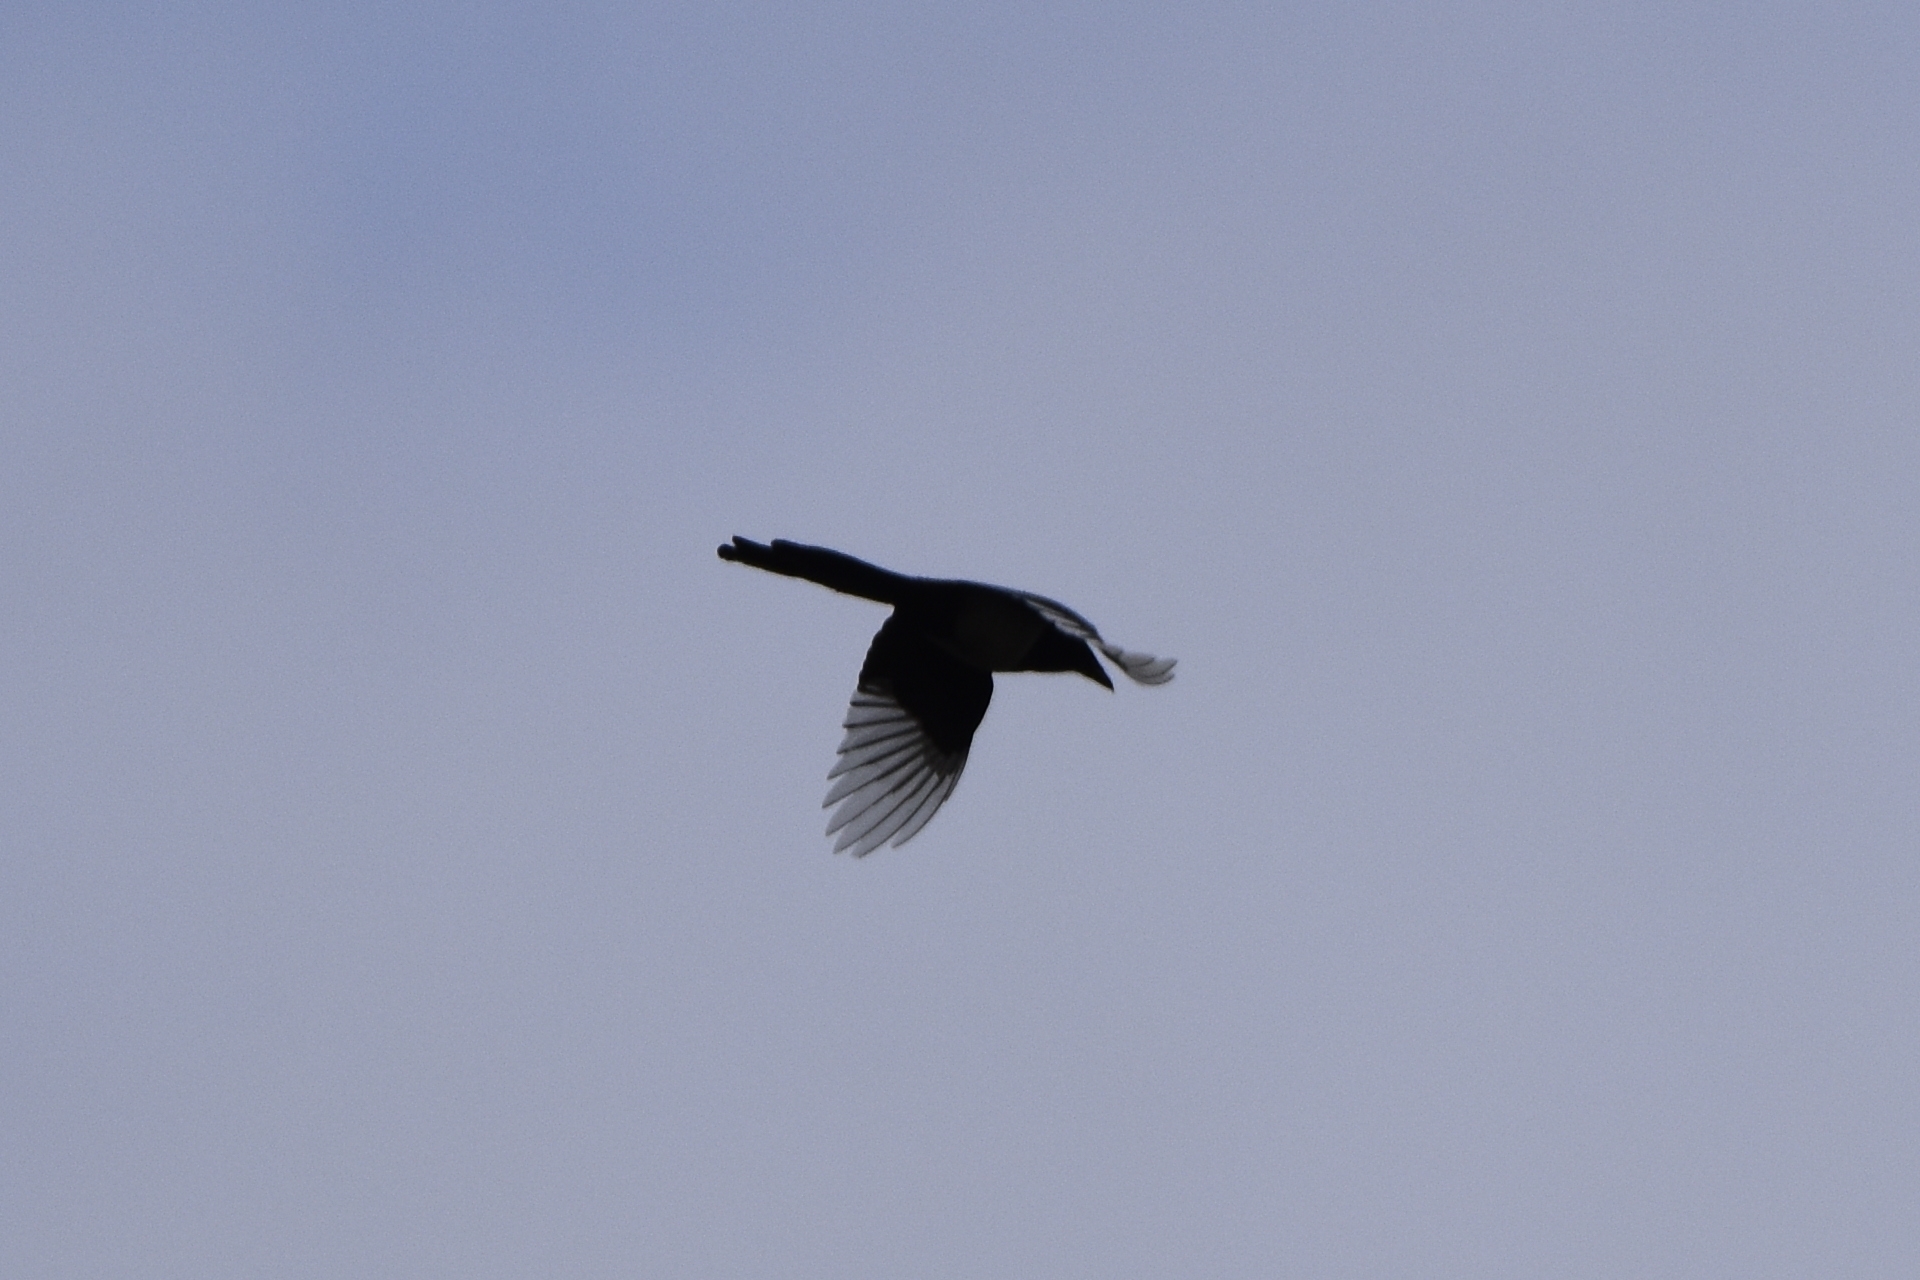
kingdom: Animalia
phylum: Chordata
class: Aves
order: Passeriformes
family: Corvidae
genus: Pica
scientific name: Pica pica
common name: Eurasian magpie
